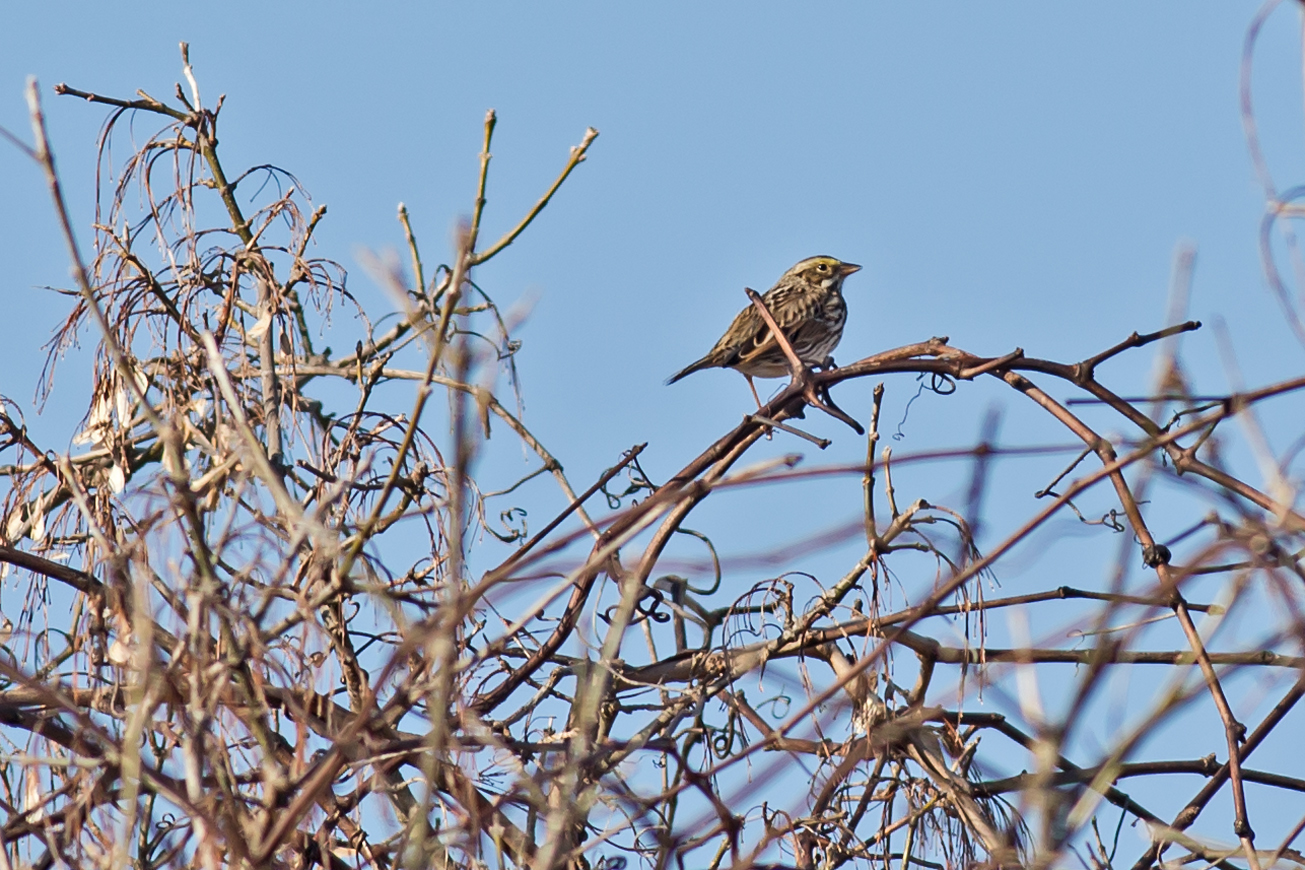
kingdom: Animalia
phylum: Chordata
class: Aves
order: Passeriformes
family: Passerellidae
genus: Passerculus
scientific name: Passerculus sandwichensis
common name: Savannah sparrow
